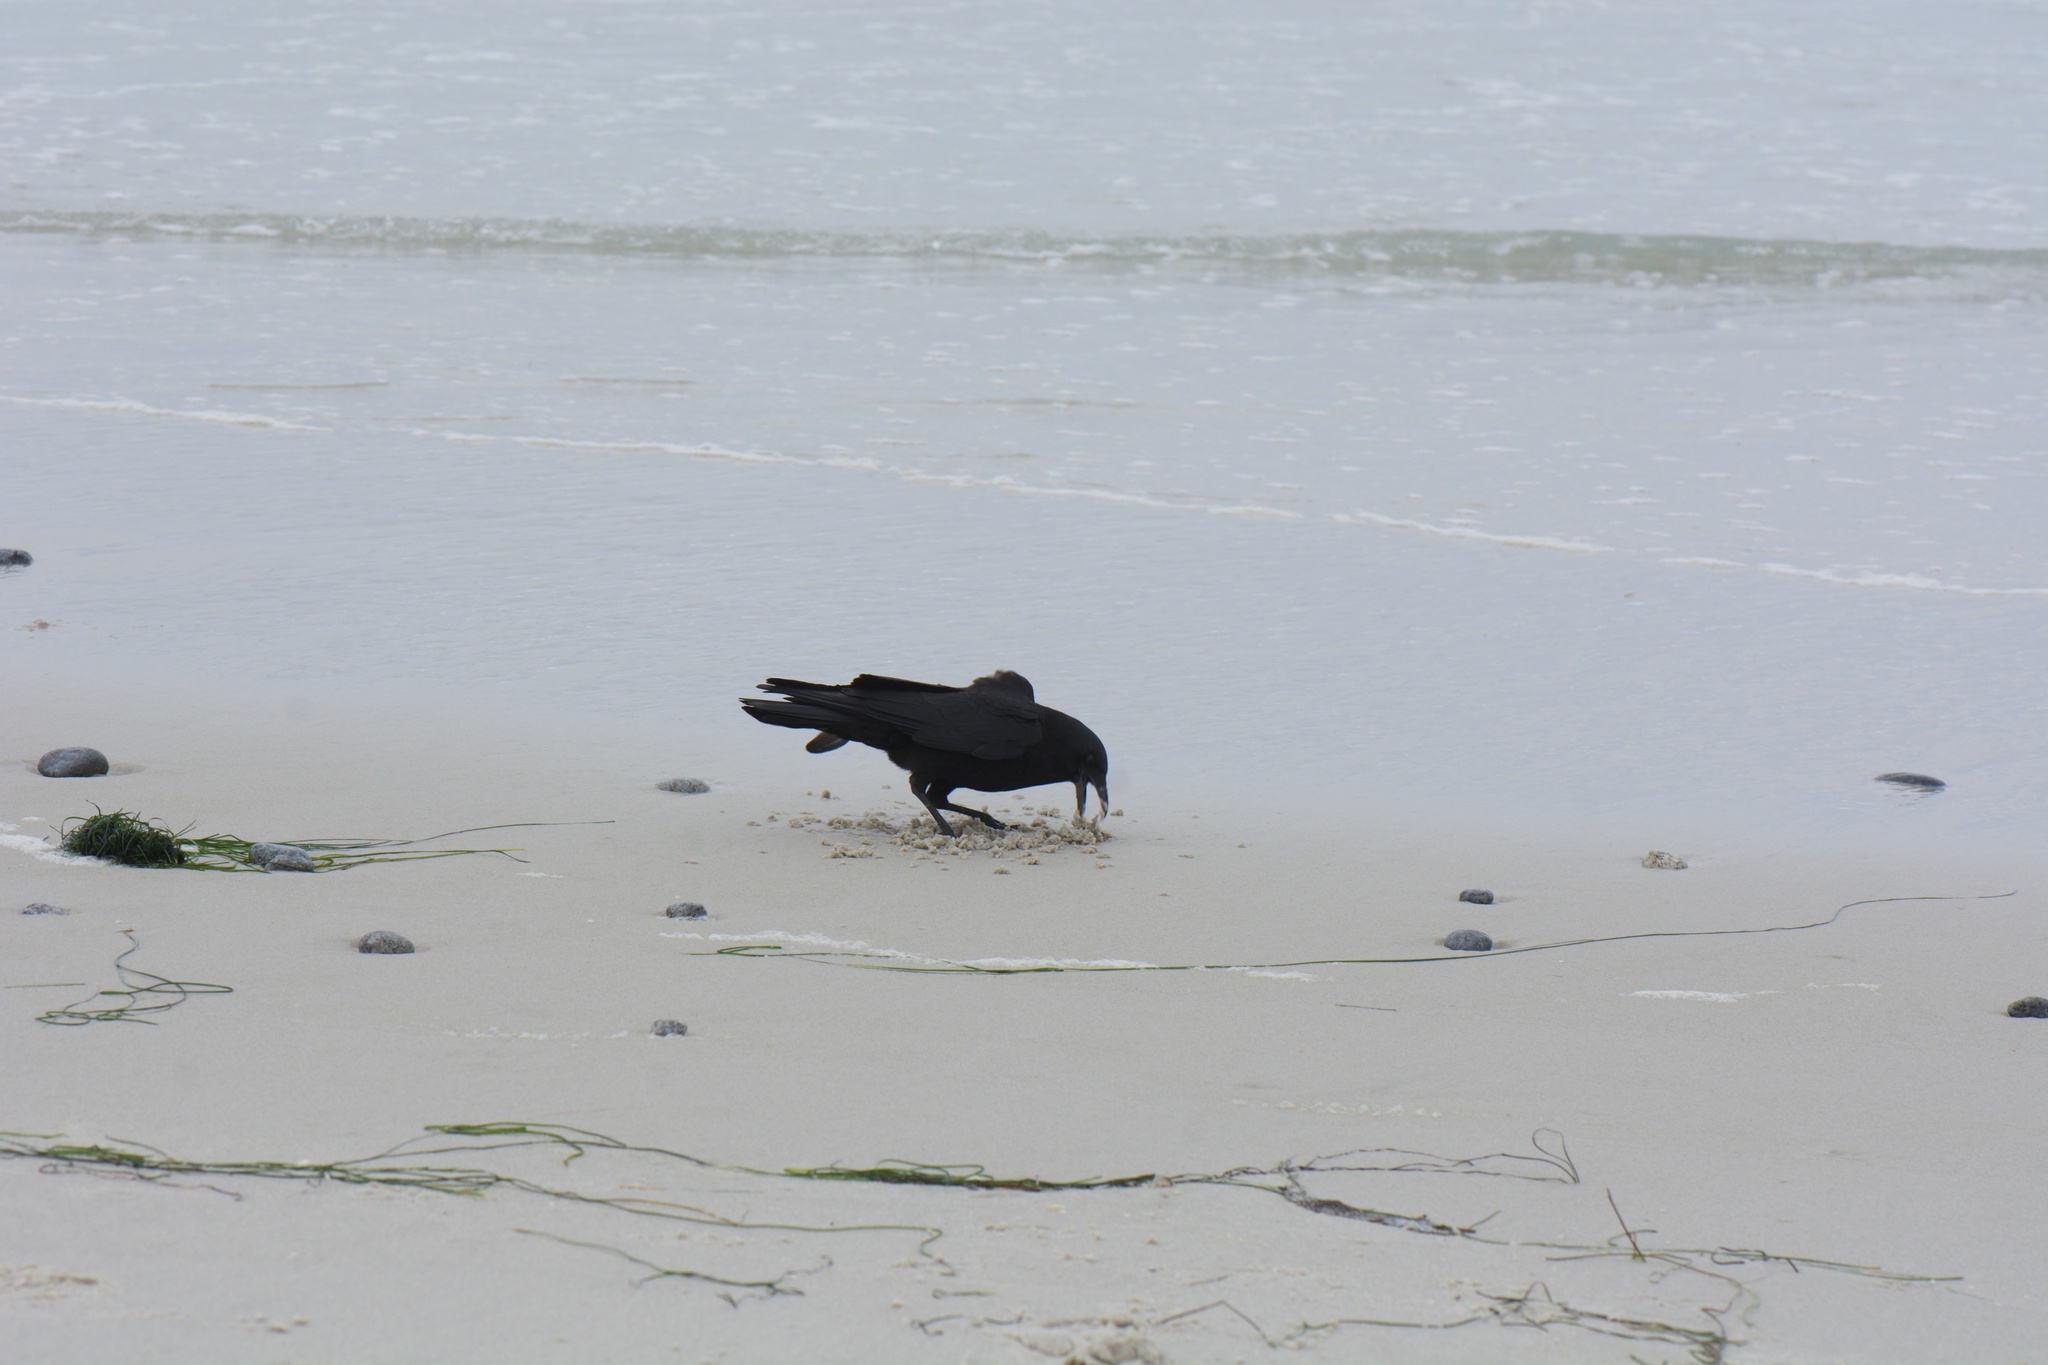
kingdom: Animalia
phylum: Chordata
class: Aves
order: Passeriformes
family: Corvidae
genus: Corvus
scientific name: Corvus brachyrhynchos
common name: American crow
